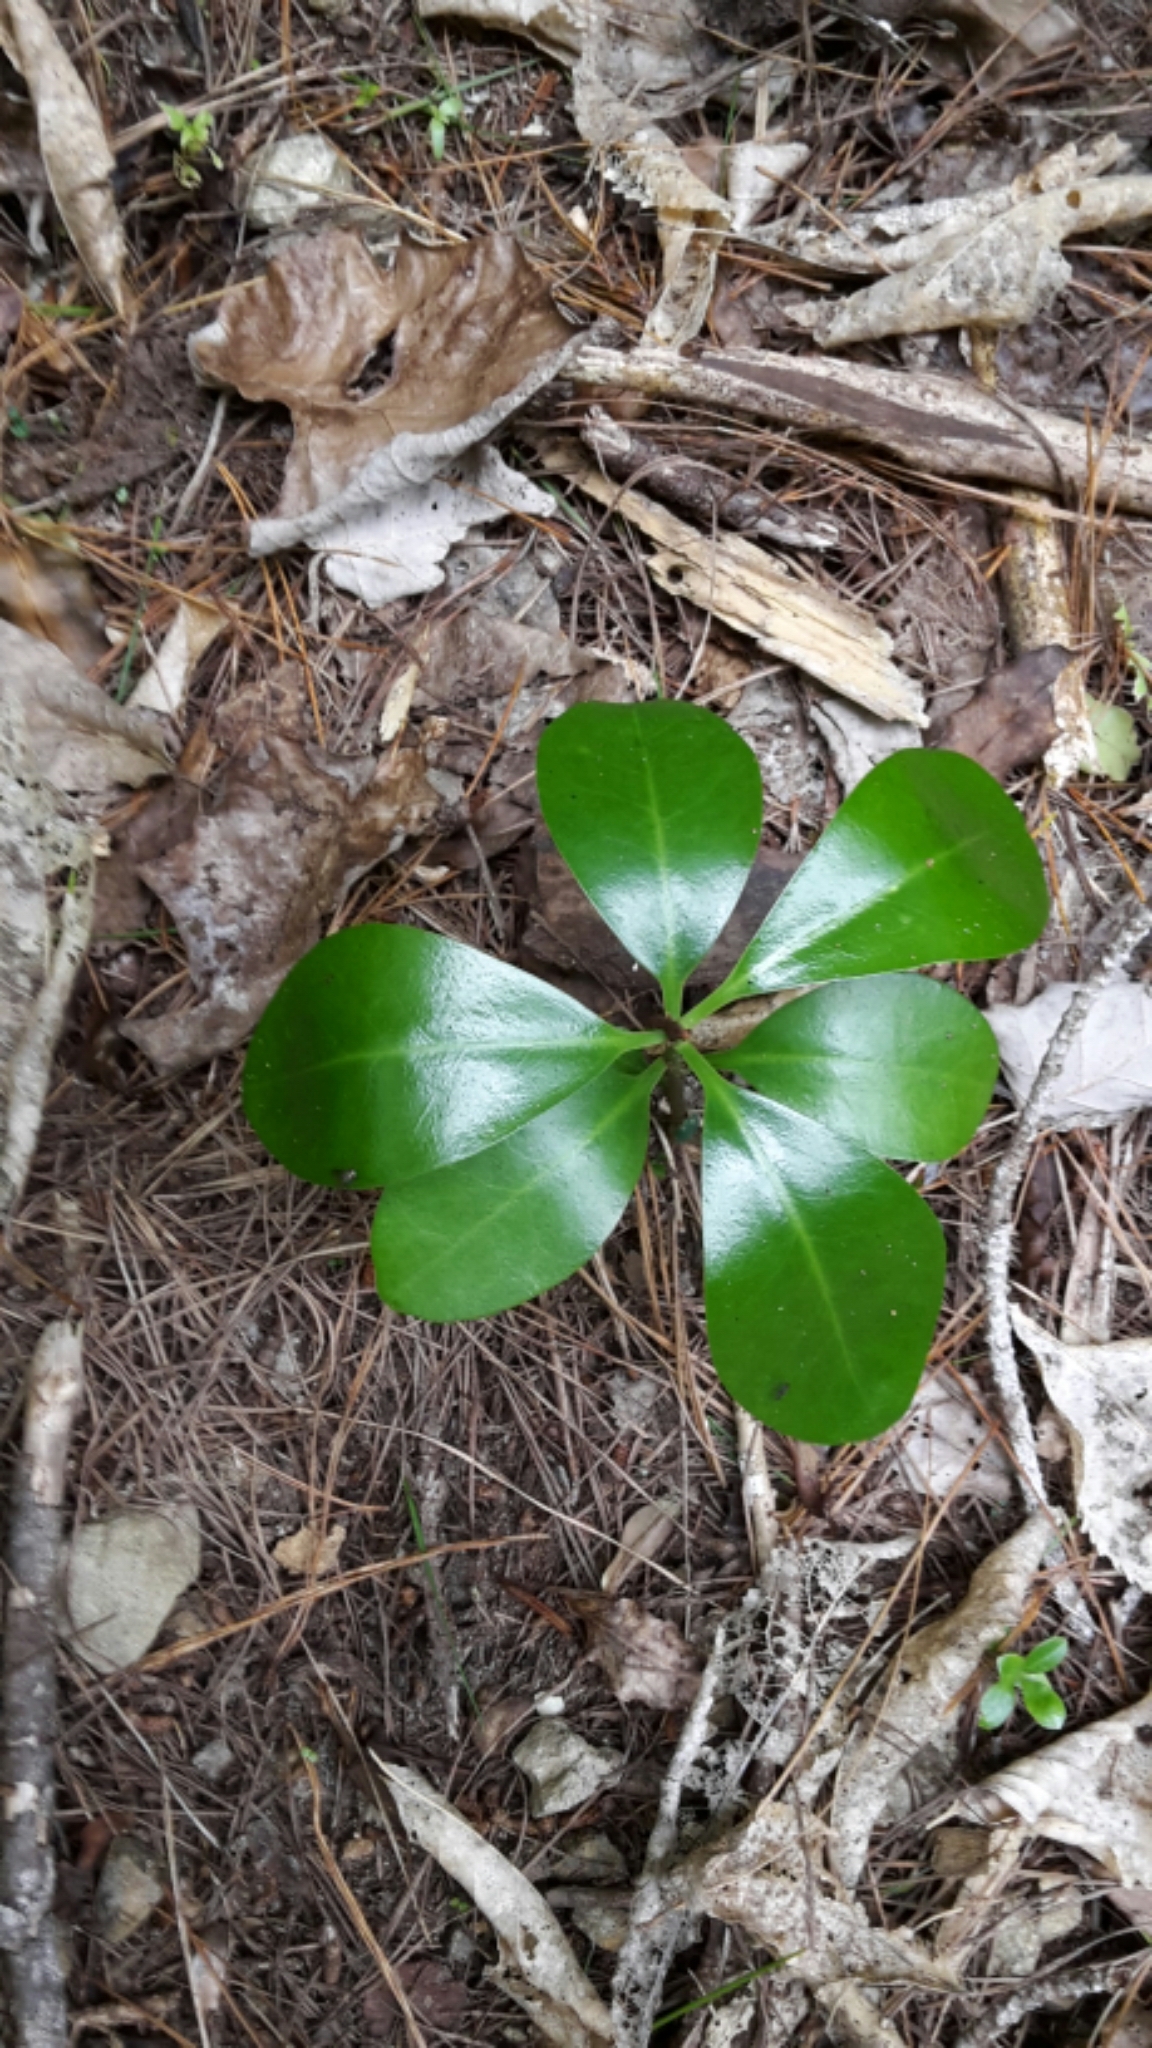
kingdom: Plantae
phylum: Tracheophyta
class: Magnoliopsida
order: Cucurbitales
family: Corynocarpaceae
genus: Corynocarpus
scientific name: Corynocarpus laevigatus
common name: New zealand laurel
